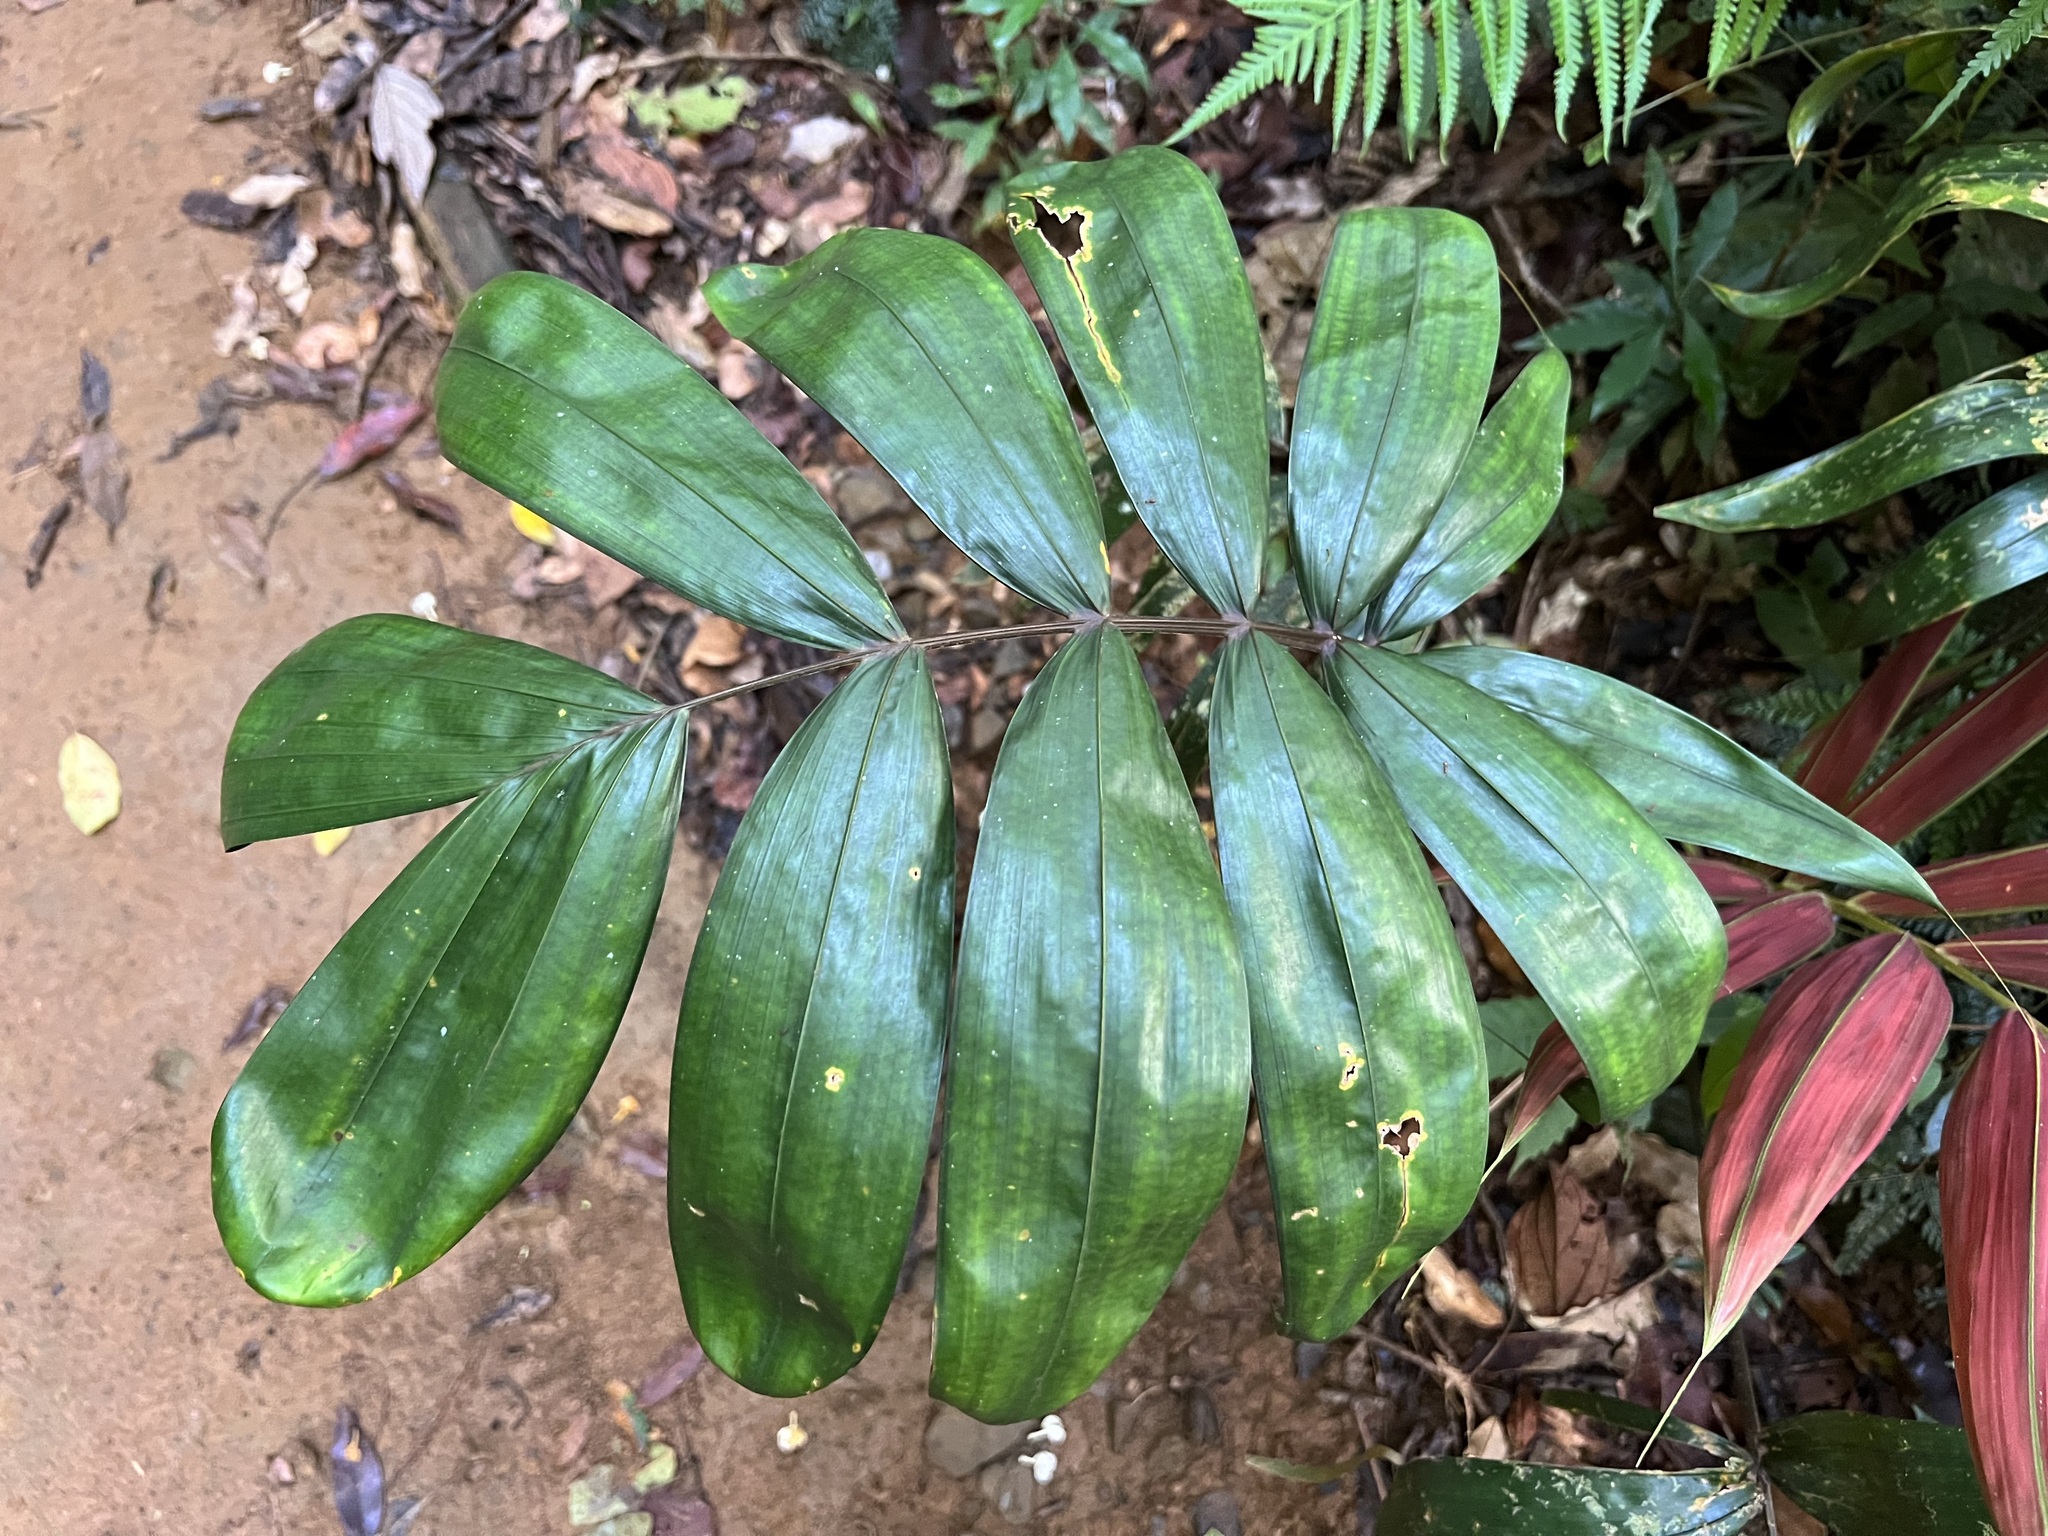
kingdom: Plantae
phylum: Tracheophyta
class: Liliopsida
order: Arecales
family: Arecaceae
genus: Chambeyronia
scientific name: Chambeyronia macrocarpa
